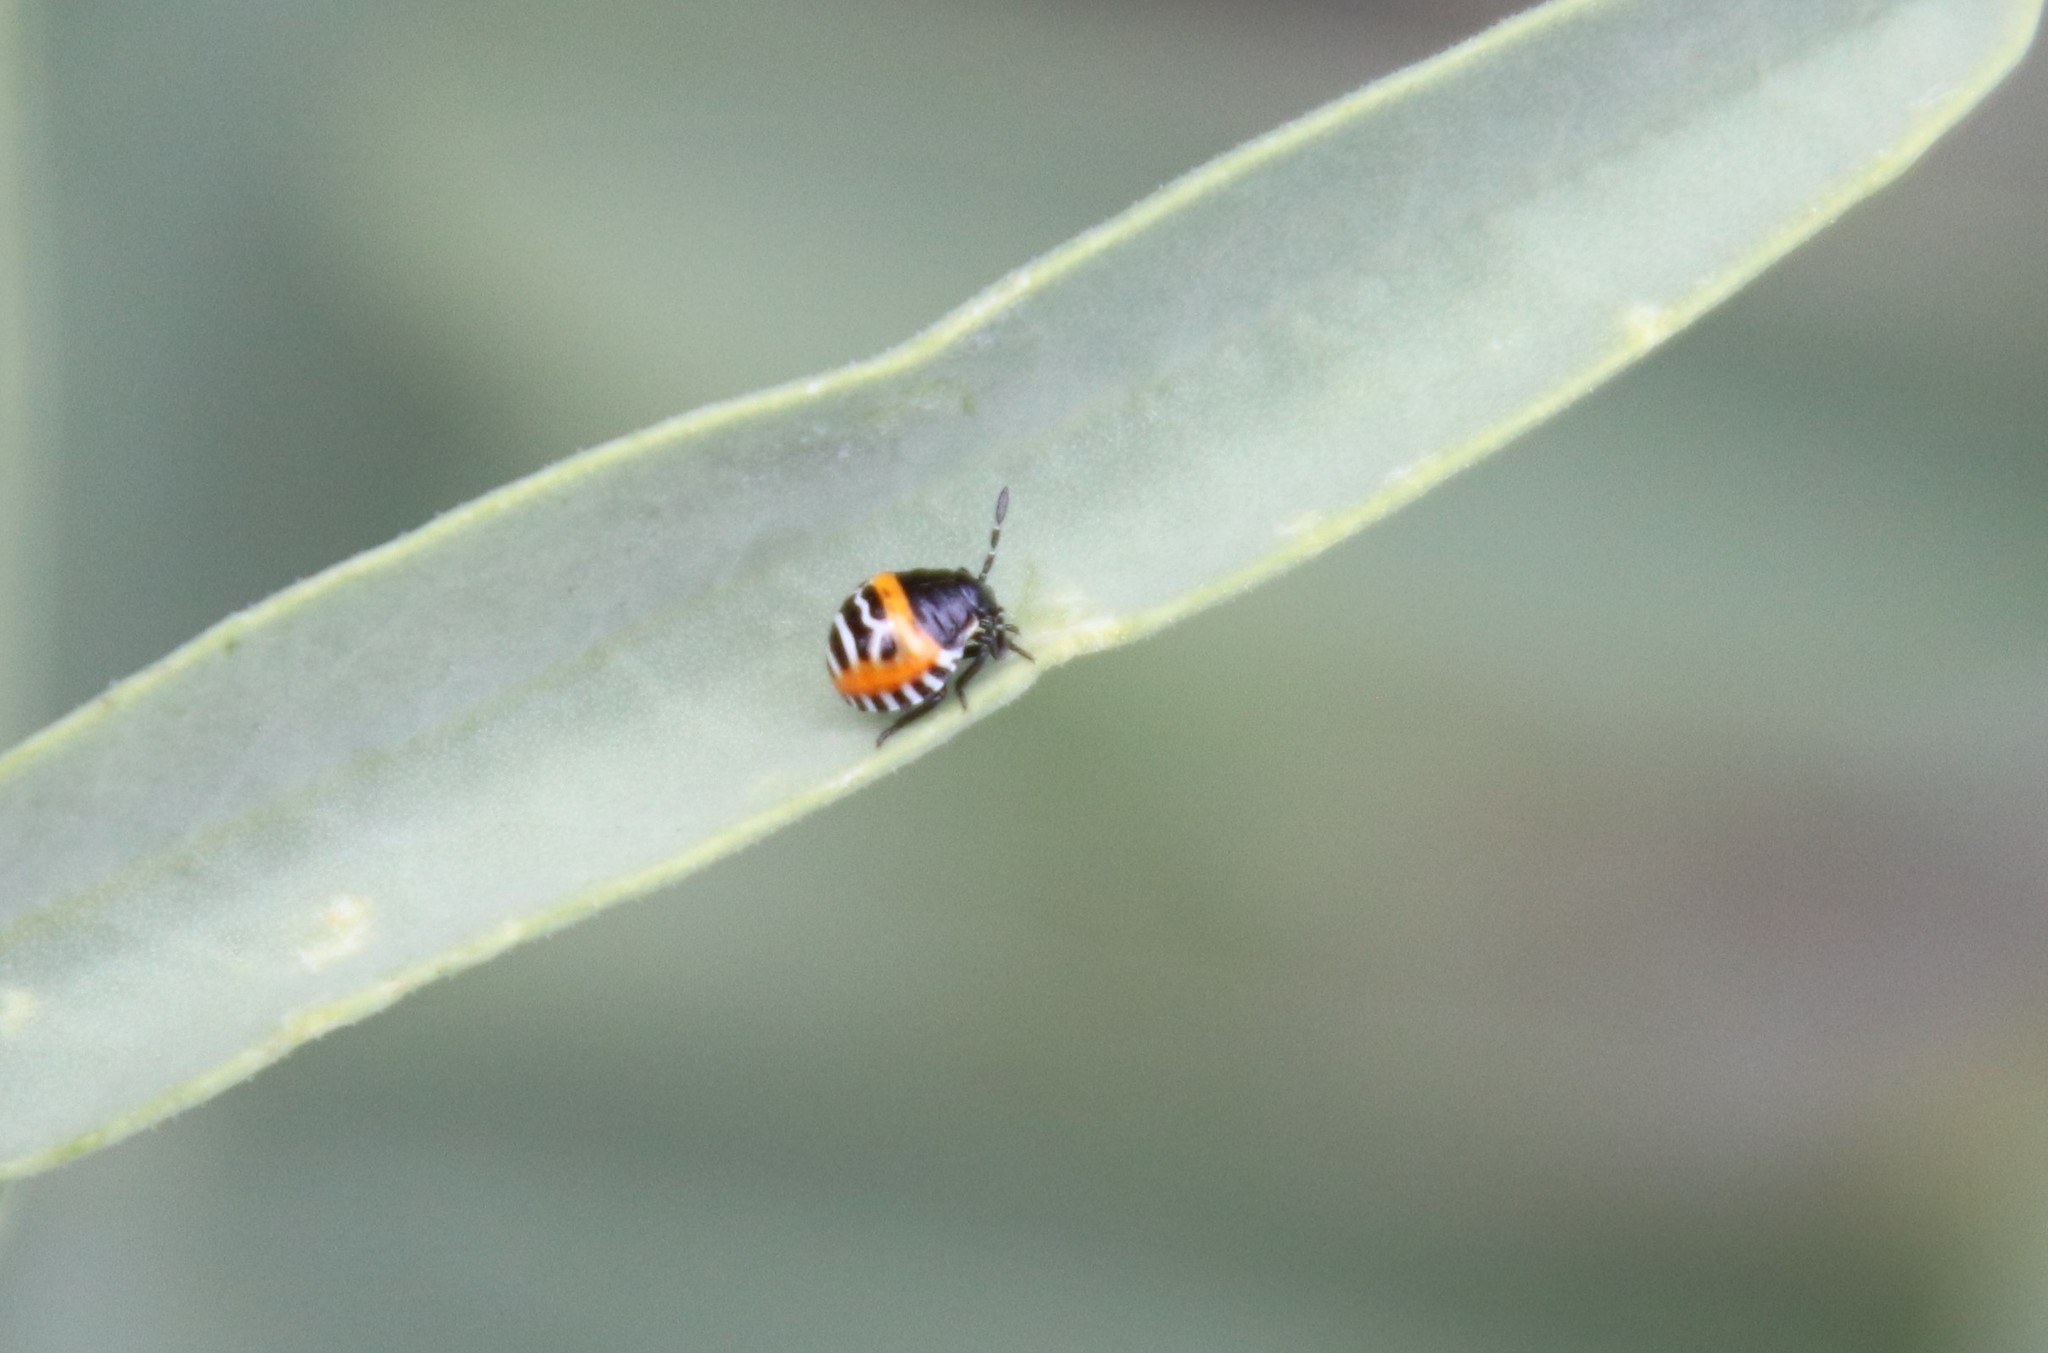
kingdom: Animalia
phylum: Arthropoda
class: Insecta
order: Hemiptera
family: Pentatomidae
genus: Murgantia
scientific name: Murgantia histrionica
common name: Harlequin bug
